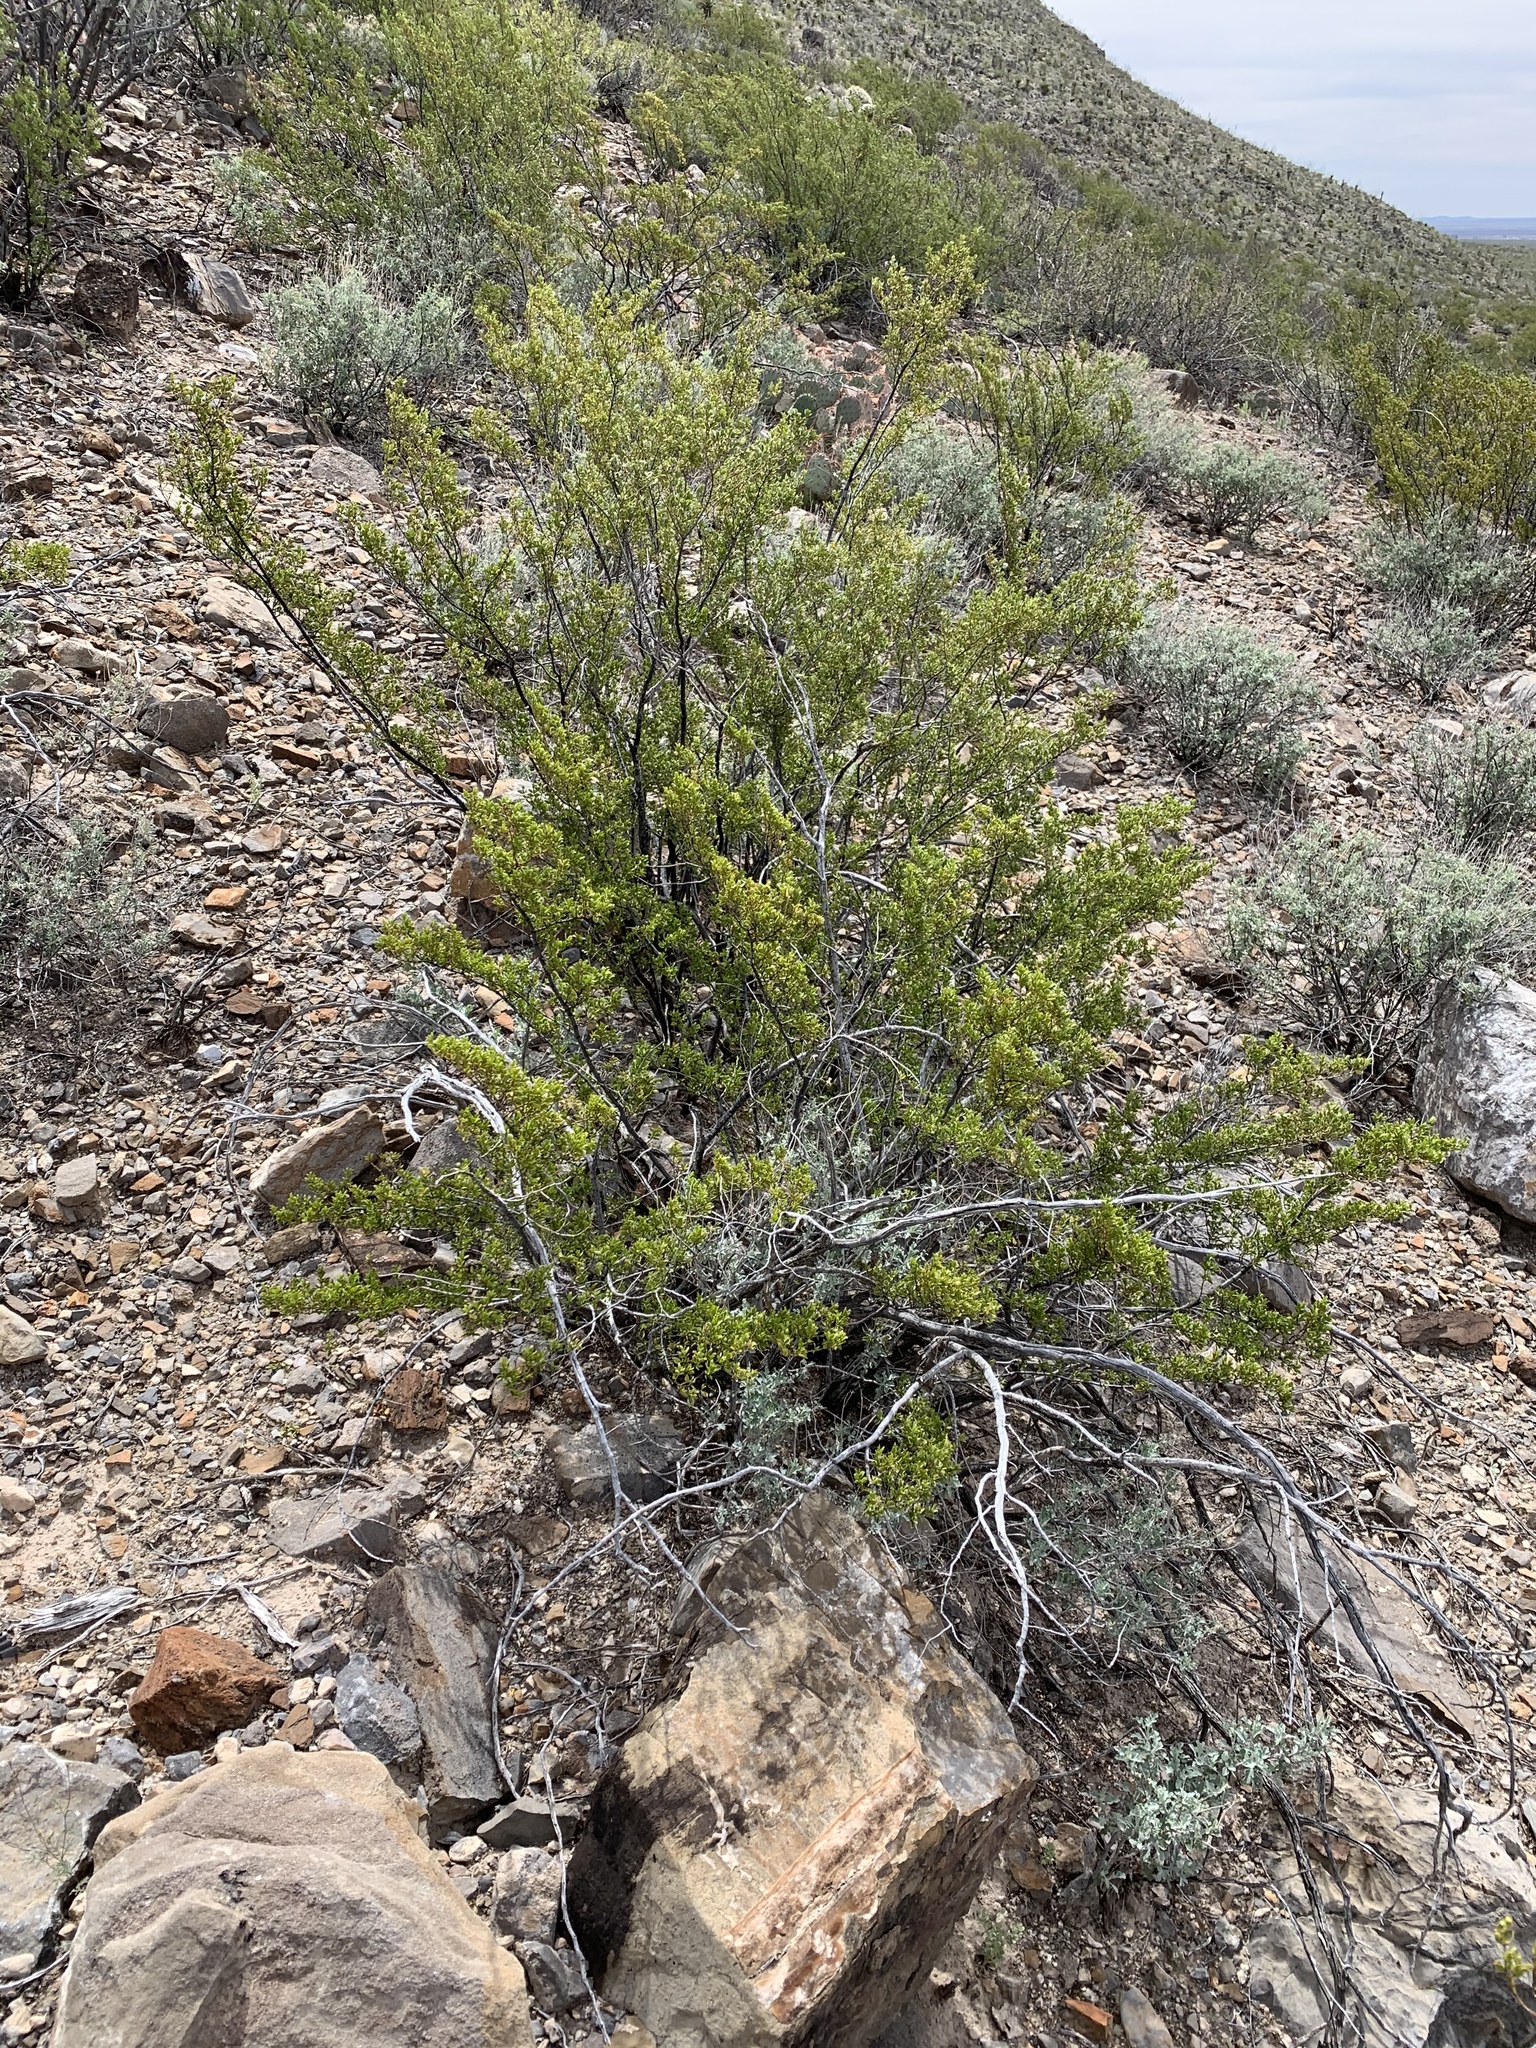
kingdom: Plantae
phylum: Tracheophyta
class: Magnoliopsida
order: Zygophyllales
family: Zygophyllaceae
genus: Larrea
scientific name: Larrea tridentata
